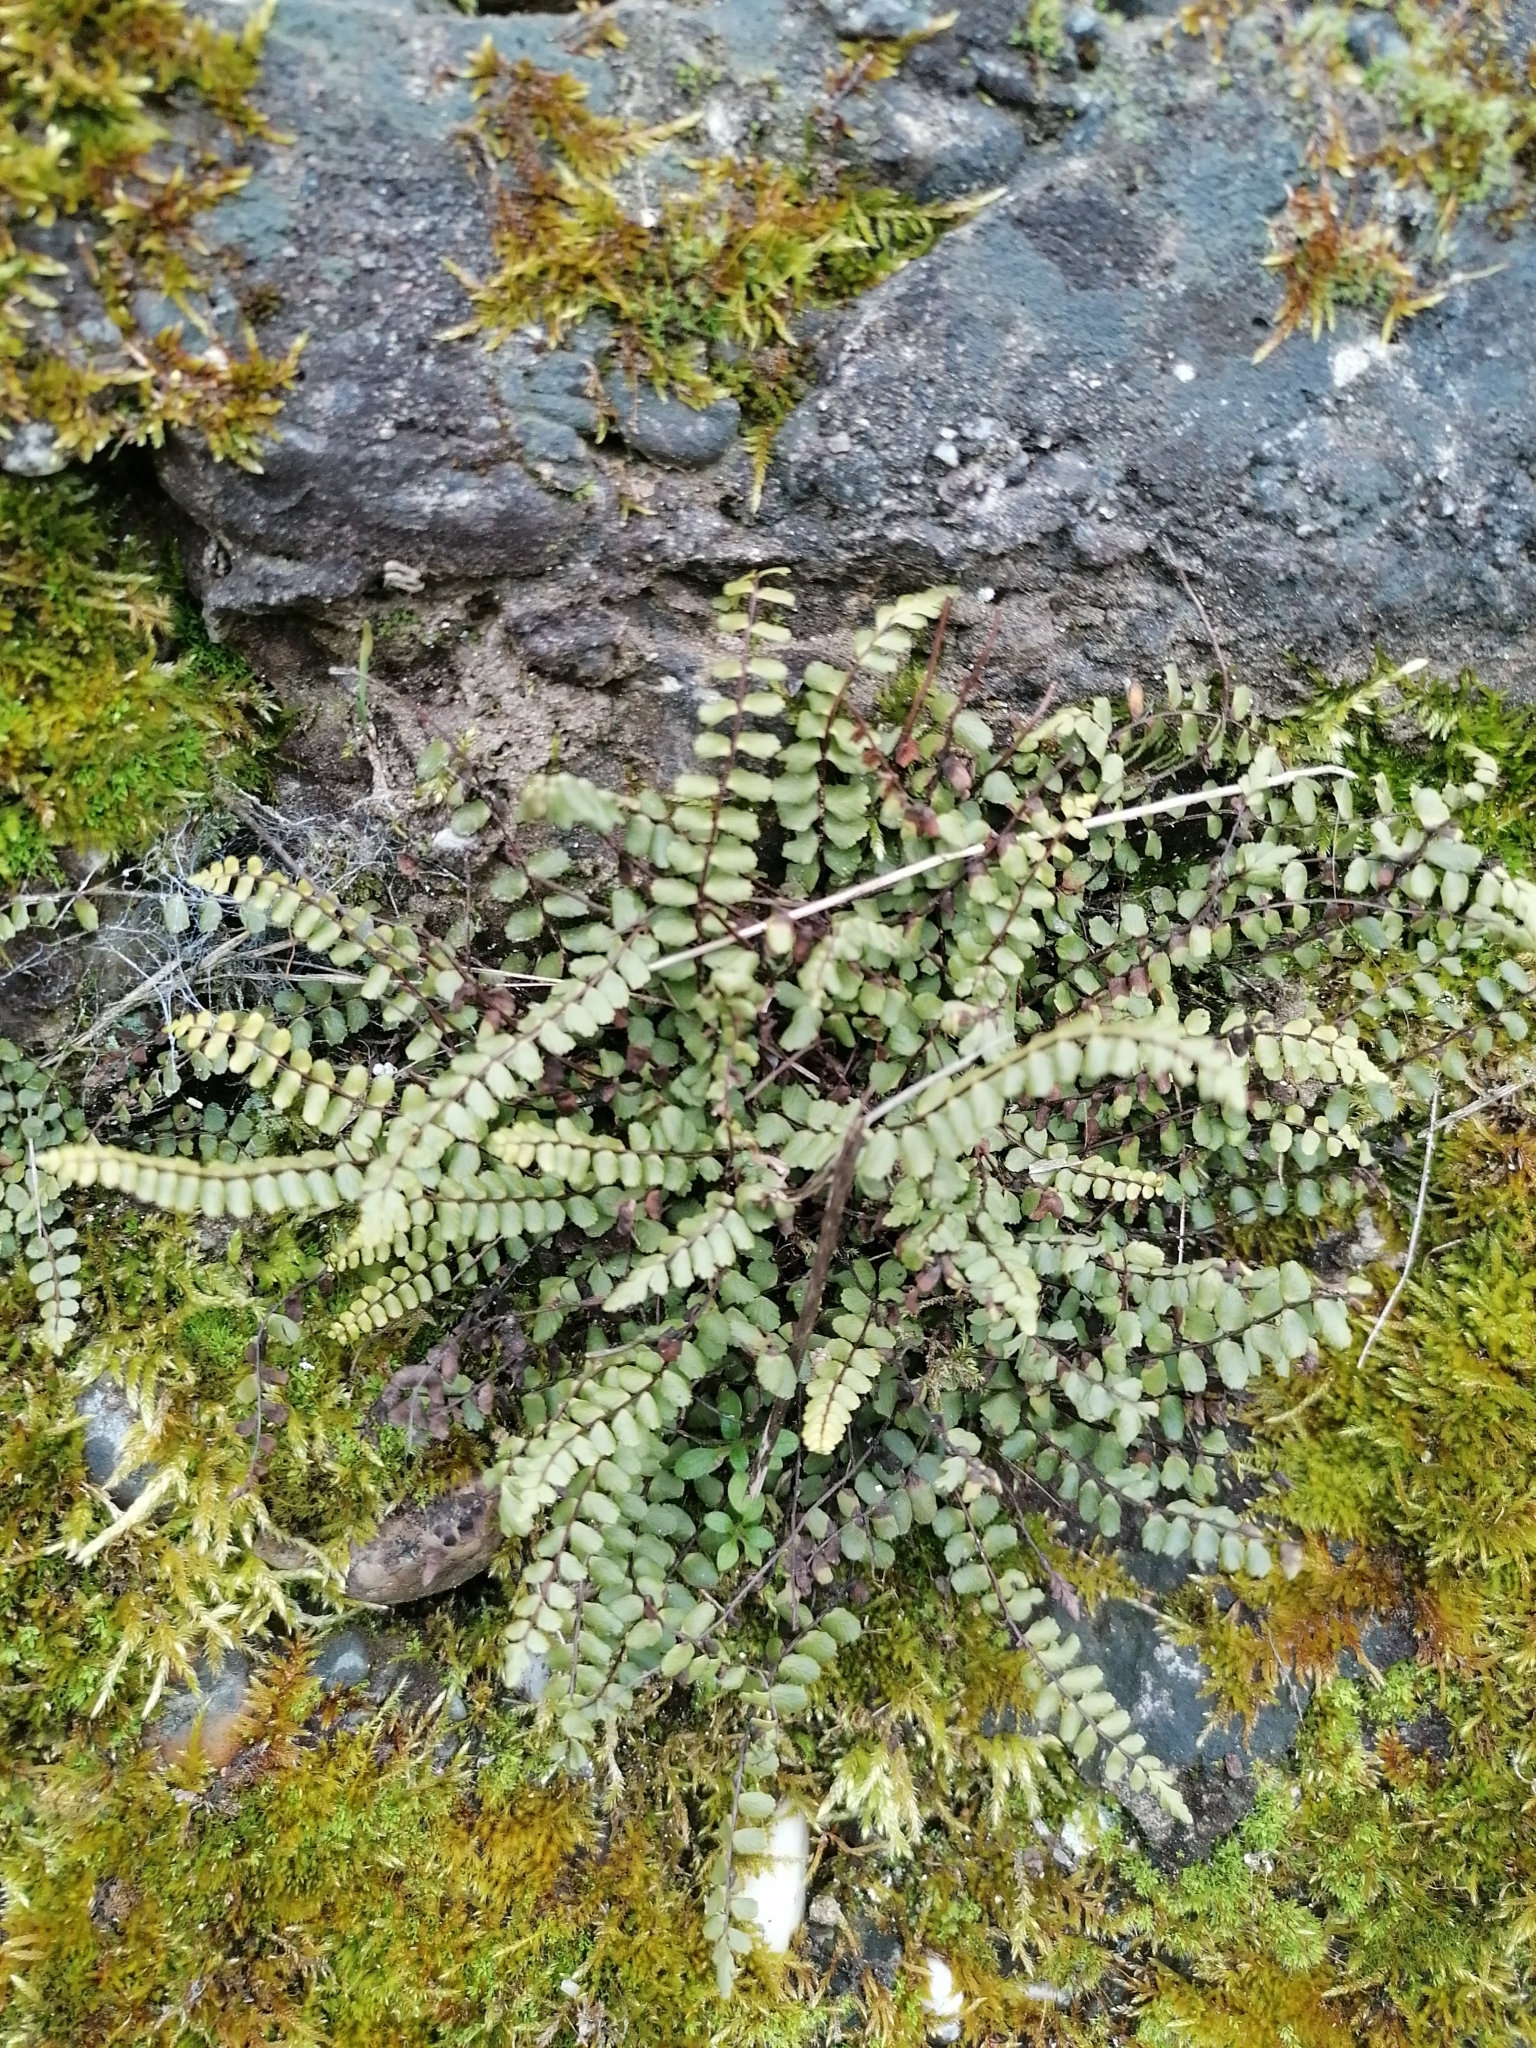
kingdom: Plantae
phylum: Tracheophyta
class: Polypodiopsida
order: Polypodiales
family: Aspleniaceae
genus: Asplenium
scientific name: Asplenium trichomanes
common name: Maidenhair spleenwort
